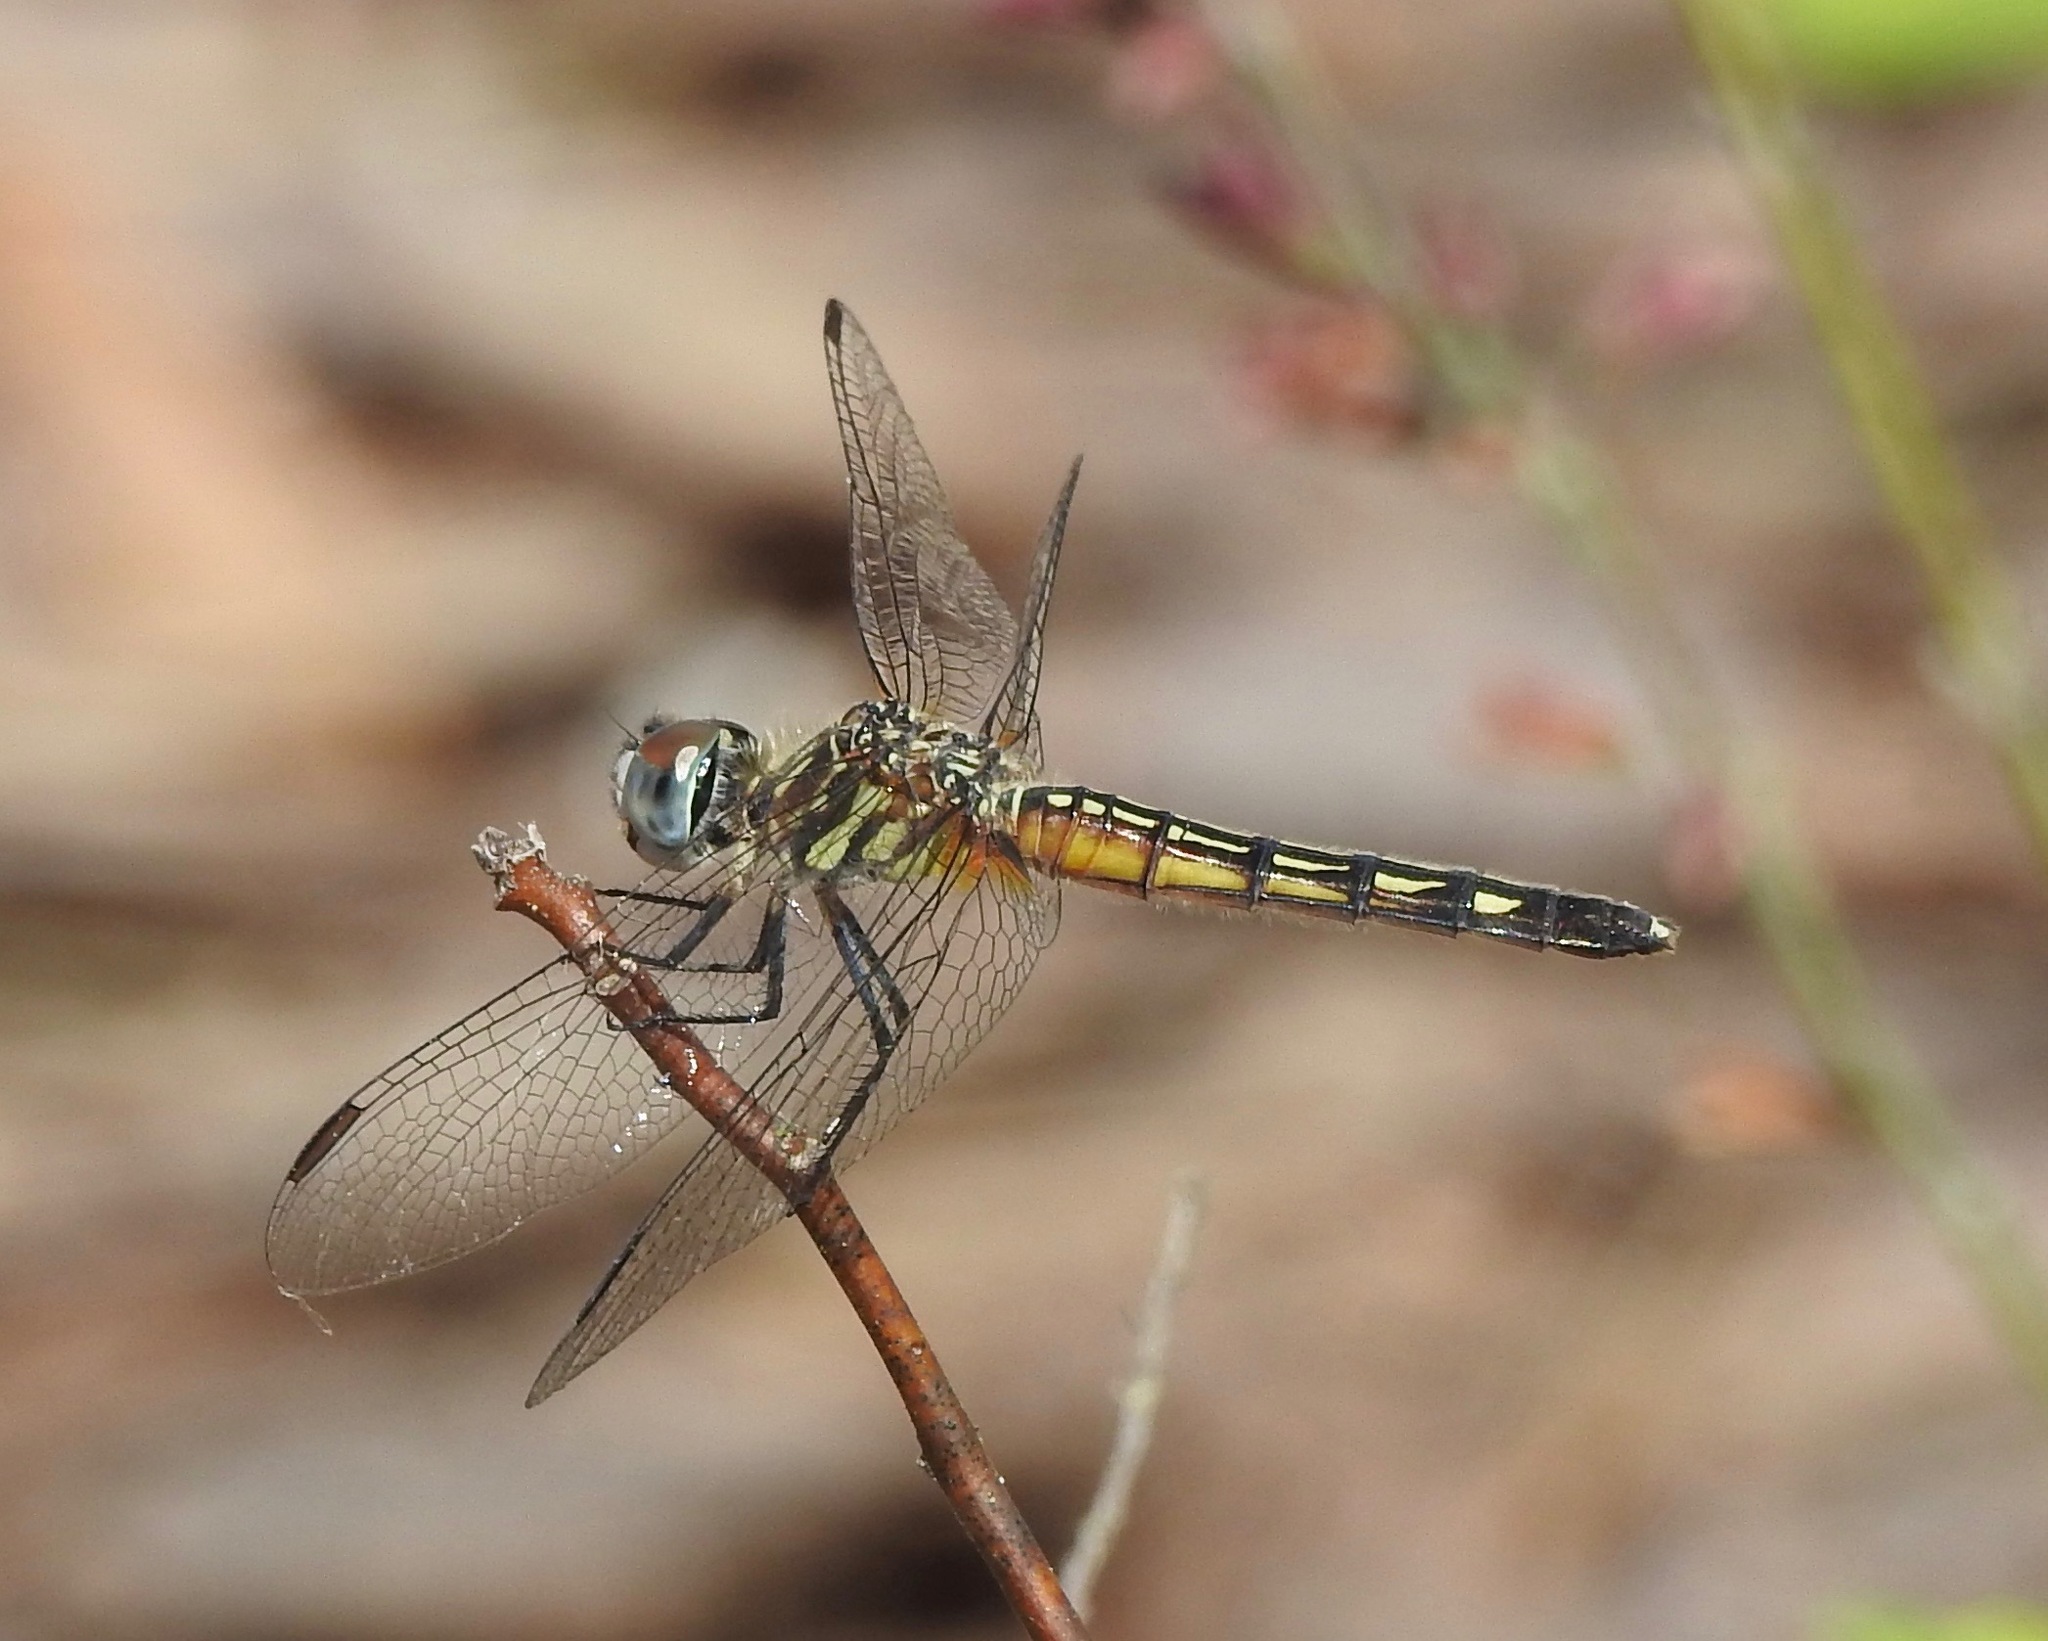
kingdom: Animalia
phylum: Arthropoda
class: Insecta
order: Odonata
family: Libellulidae
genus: Pachydiplax
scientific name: Pachydiplax longipennis
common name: Blue dasher
